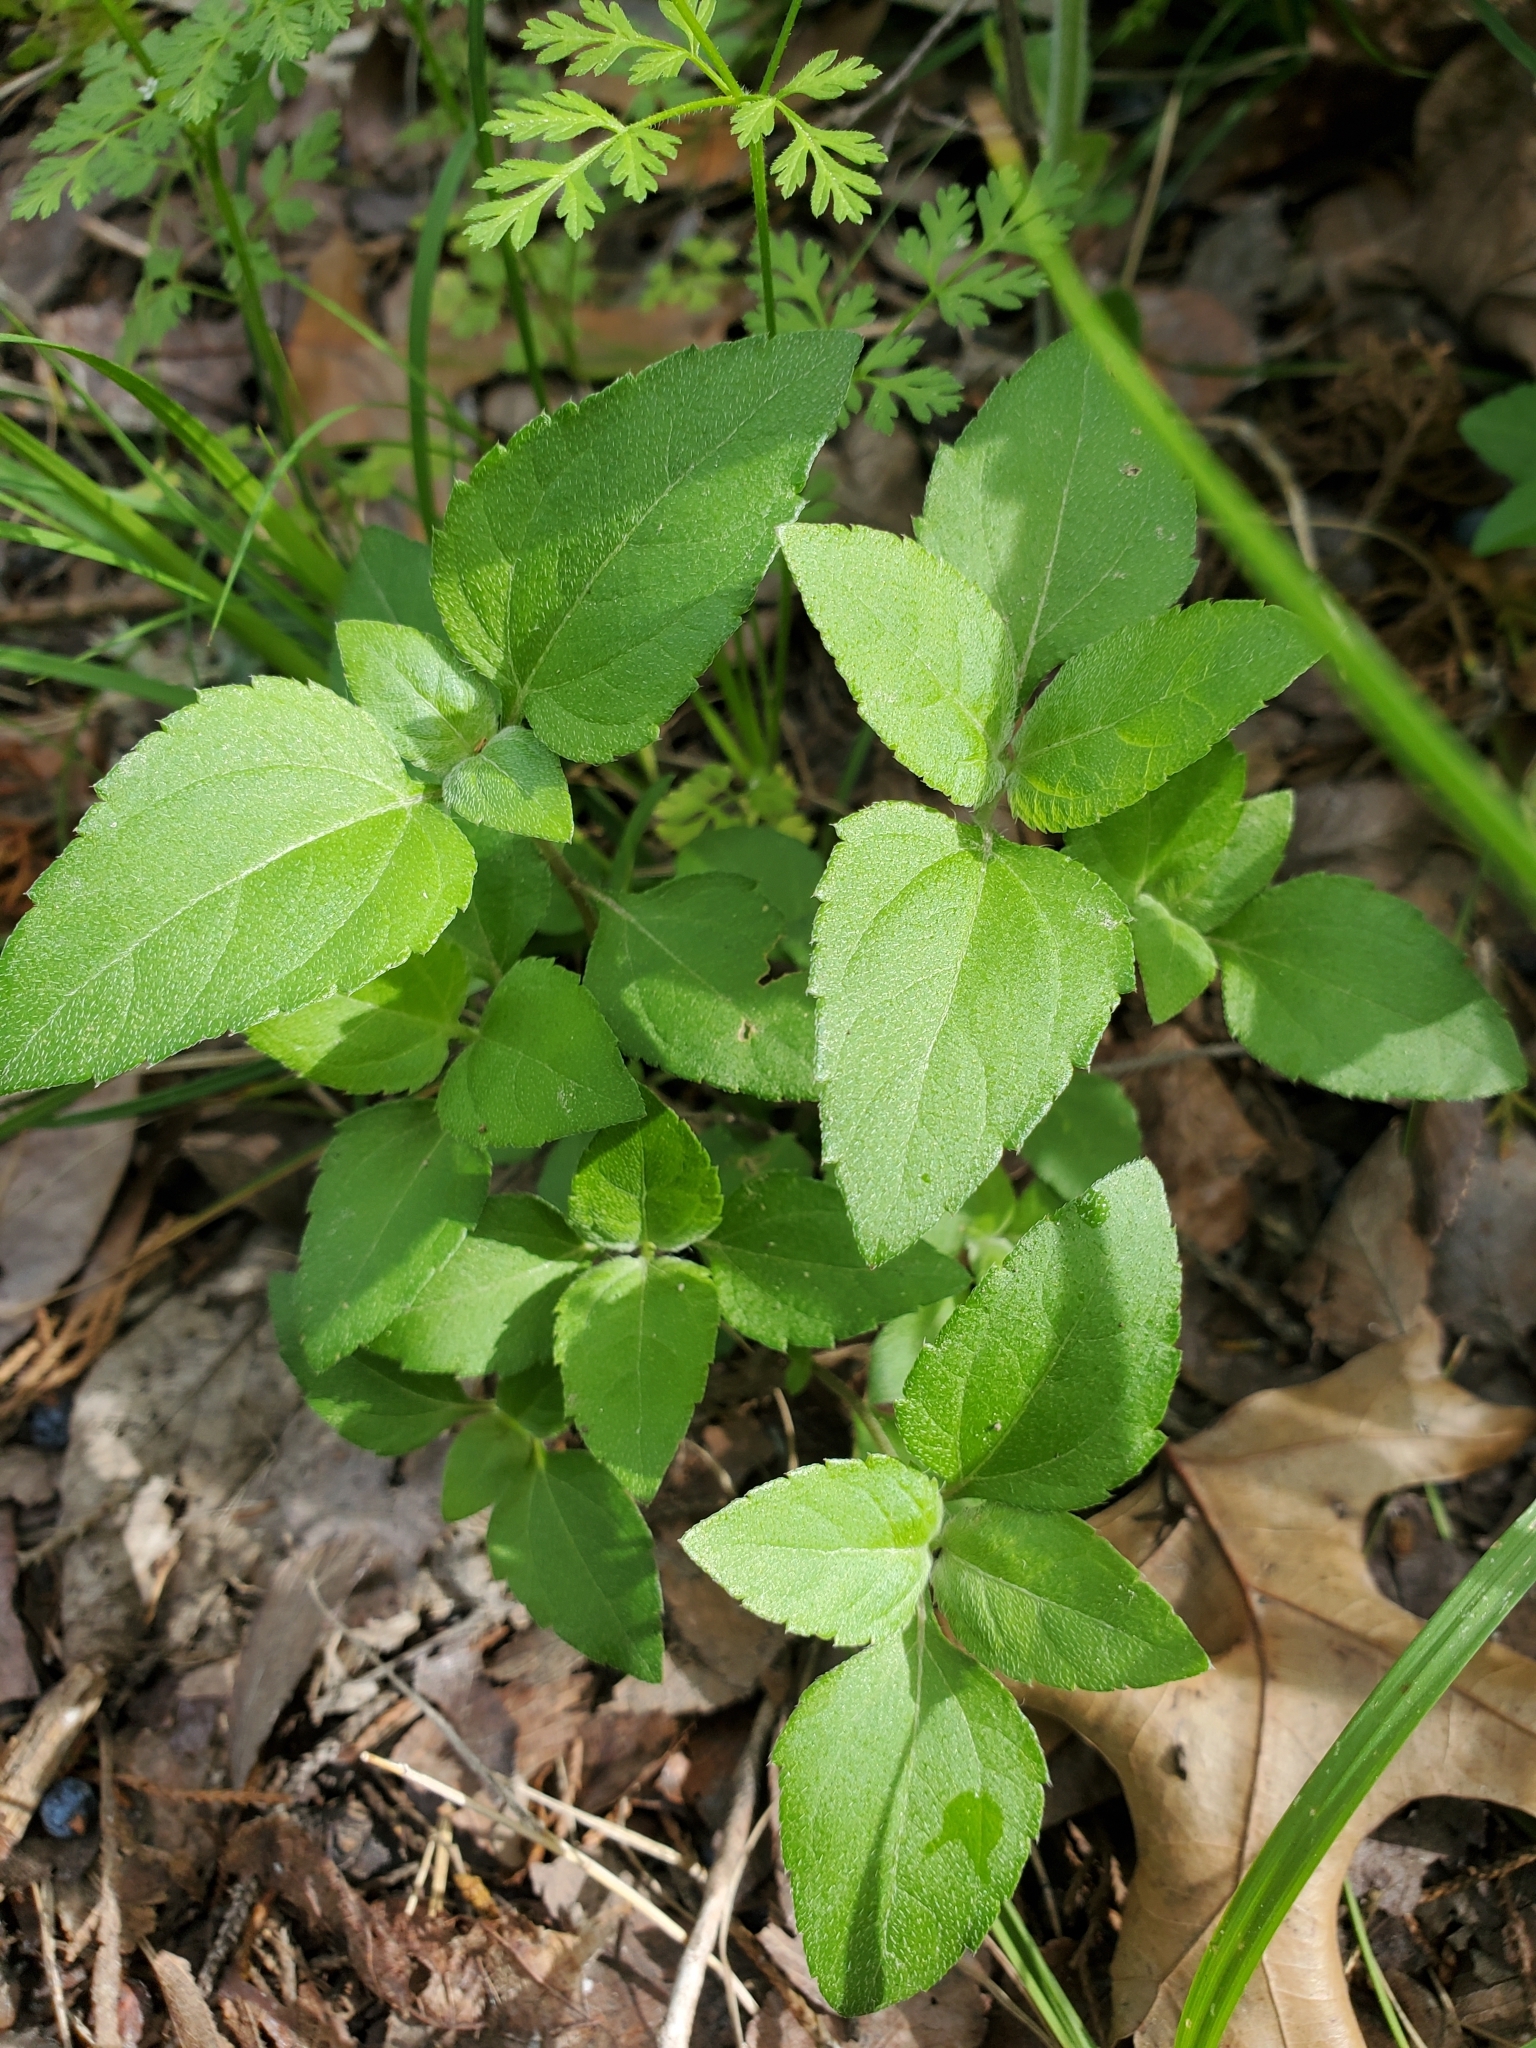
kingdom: Plantae
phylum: Tracheophyta
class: Magnoliopsida
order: Asterales
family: Asteraceae
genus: Calyptocarpus
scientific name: Calyptocarpus vialis
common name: Straggler daisy
